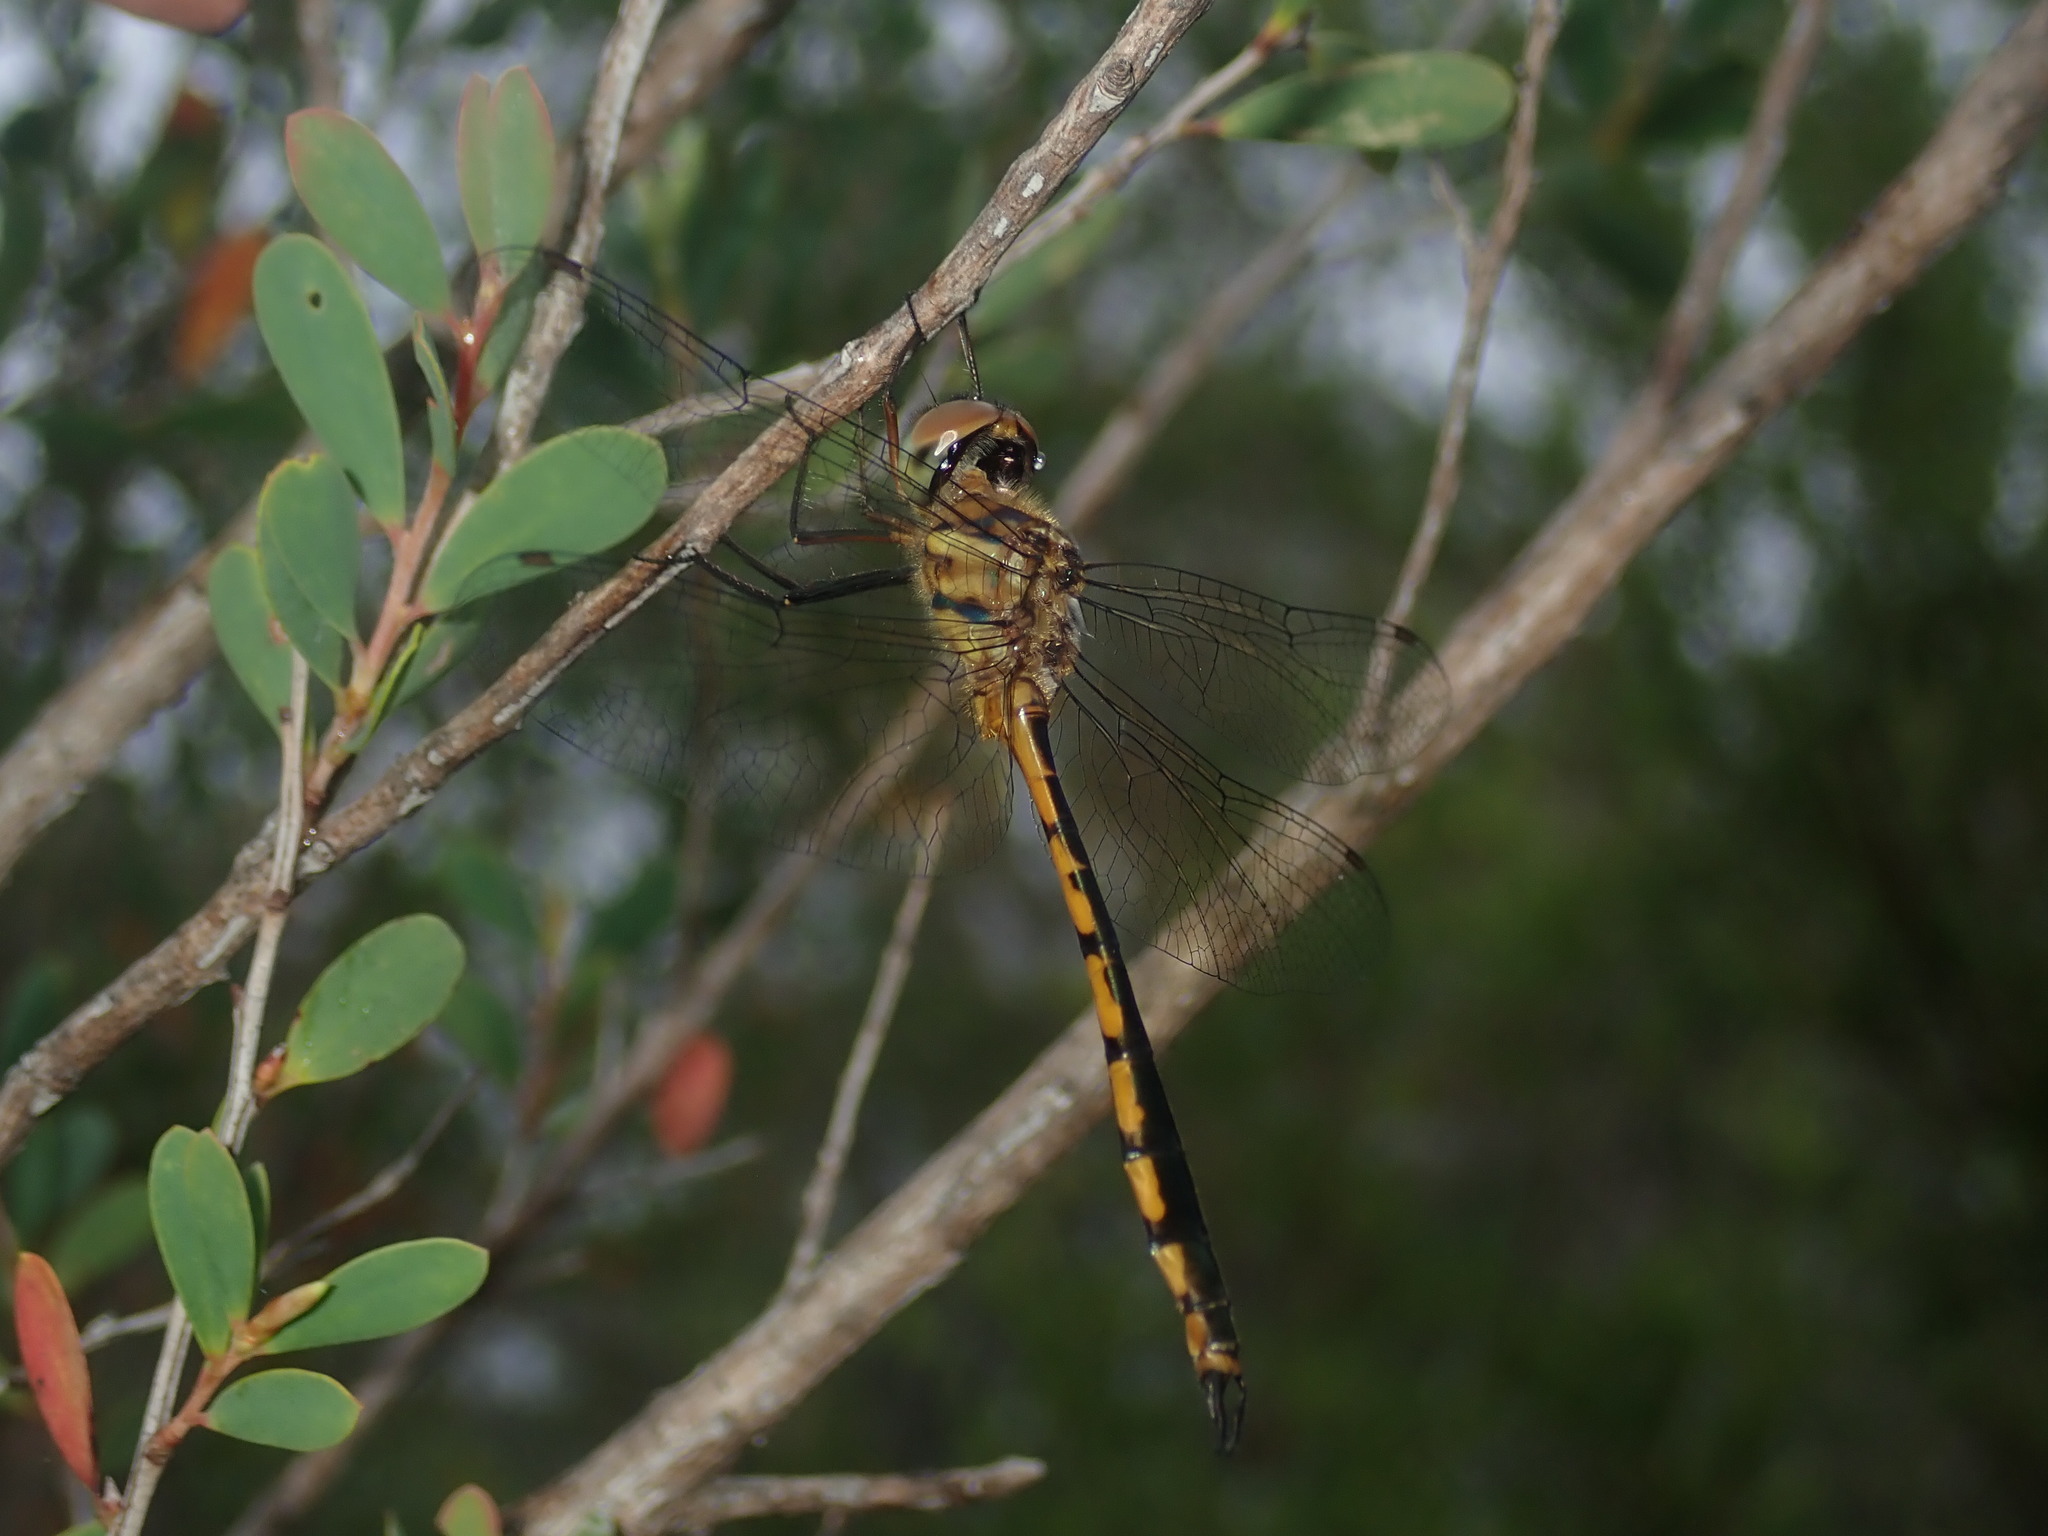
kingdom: Animalia
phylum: Arthropoda
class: Insecta
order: Odonata
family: Corduliidae
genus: Hemicordulia
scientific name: Hemicordulia continentalis
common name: Fat-bellied emerald
